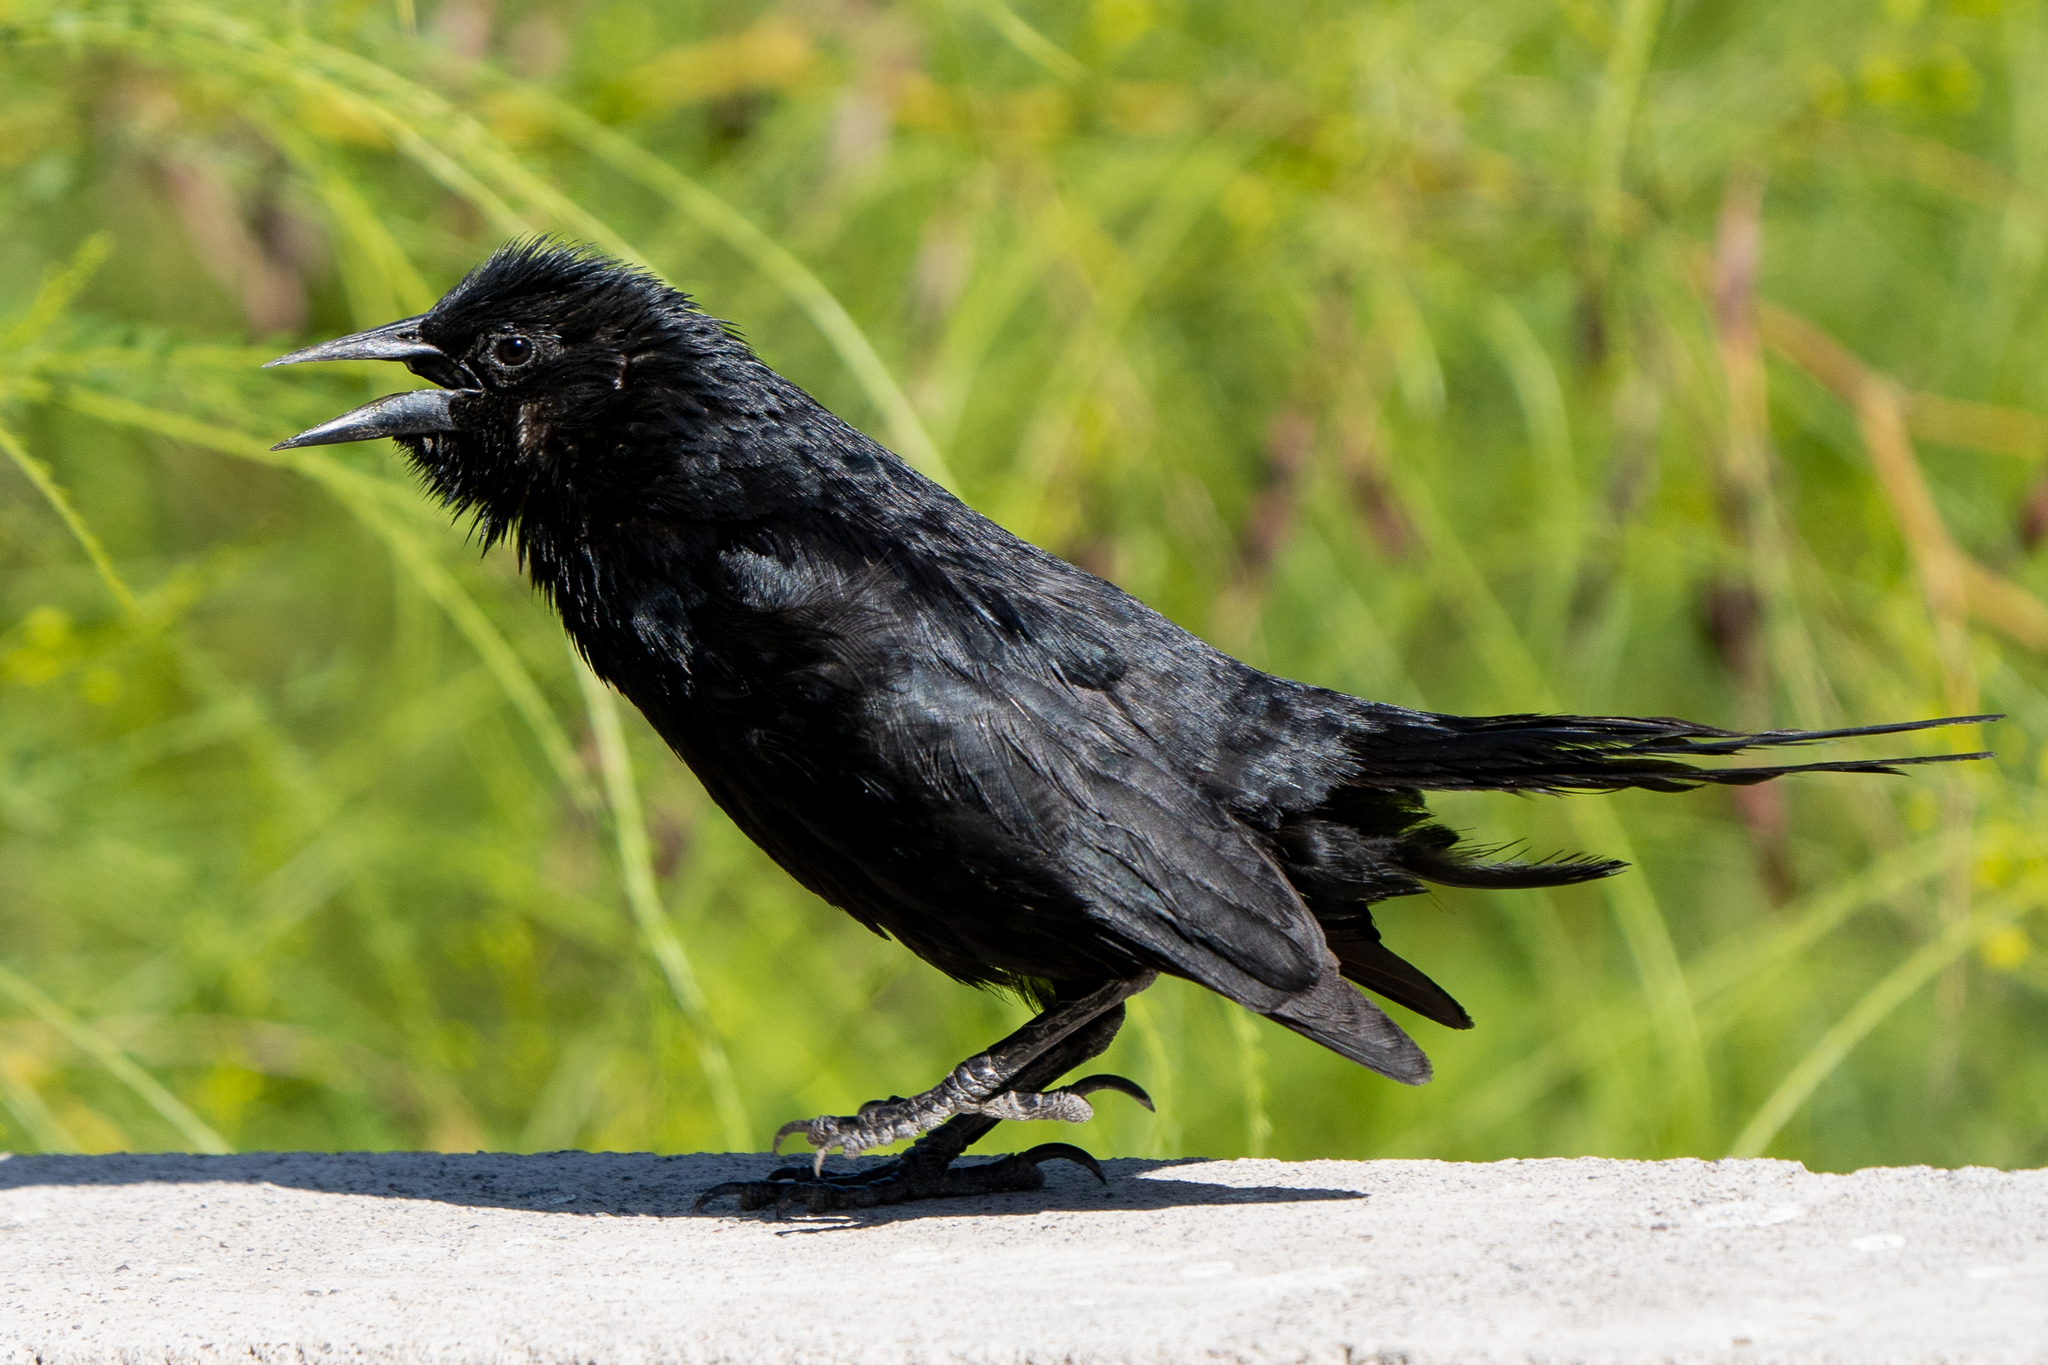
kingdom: Animalia
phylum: Chordata
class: Aves
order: Passeriformes
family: Icteridae
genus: Curaeus
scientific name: Curaeus curaeus
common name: Austral blackbird
